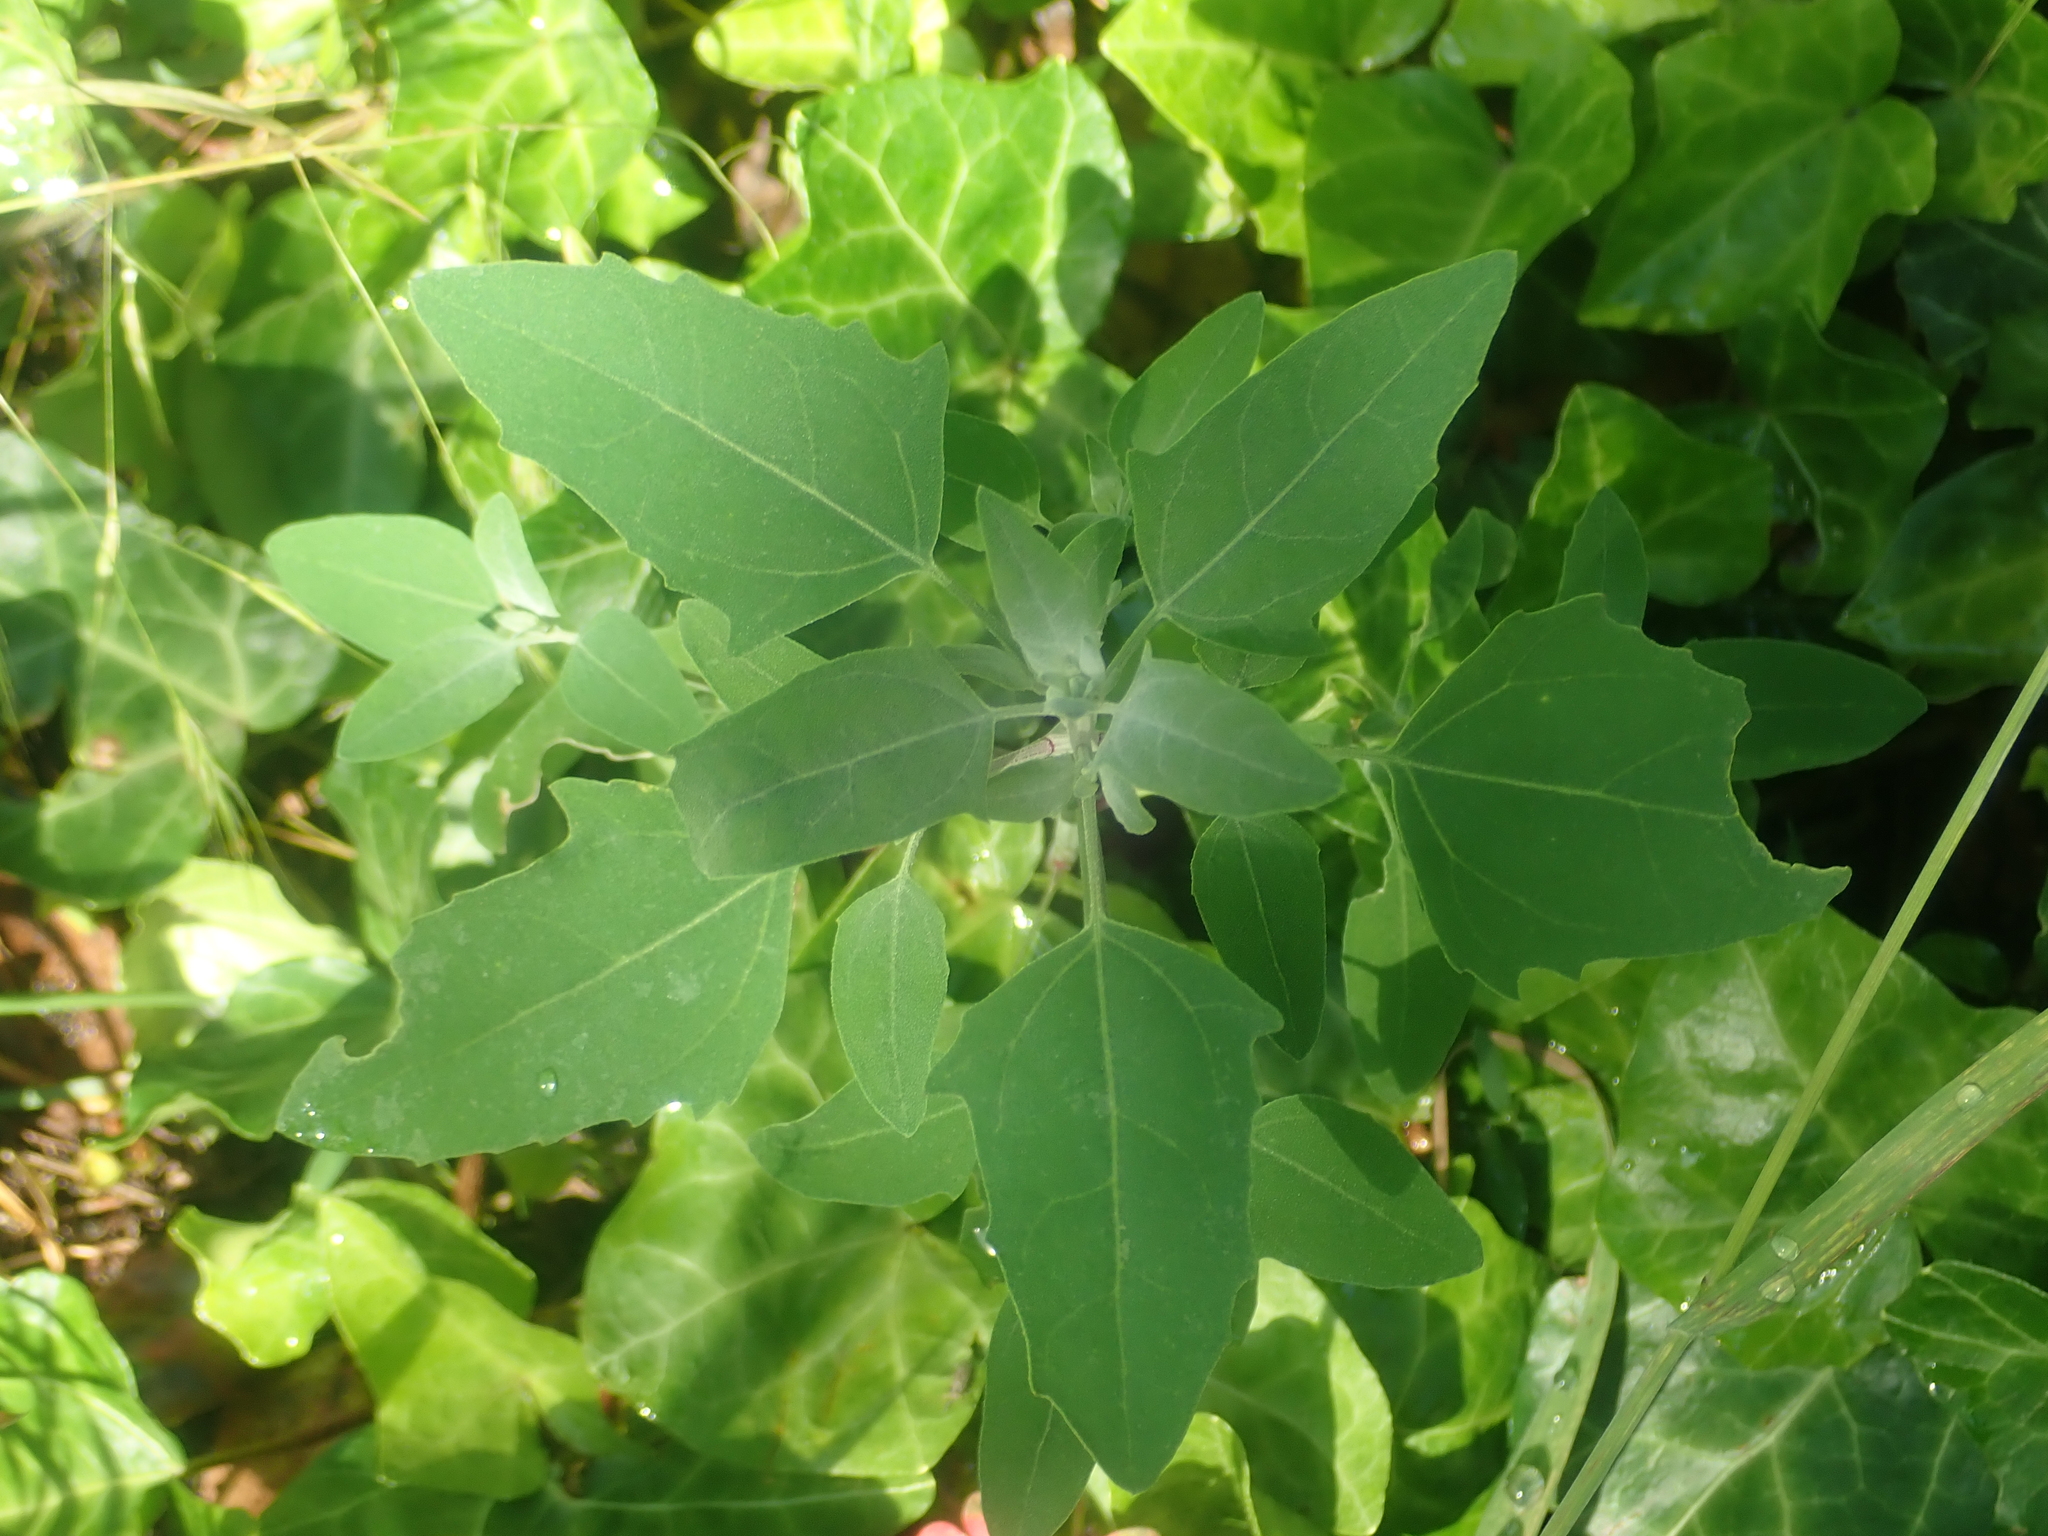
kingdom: Plantae
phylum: Tracheophyta
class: Magnoliopsida
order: Caryophyllales
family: Amaranthaceae
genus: Chenopodium
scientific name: Chenopodium album
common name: Fat-hen
